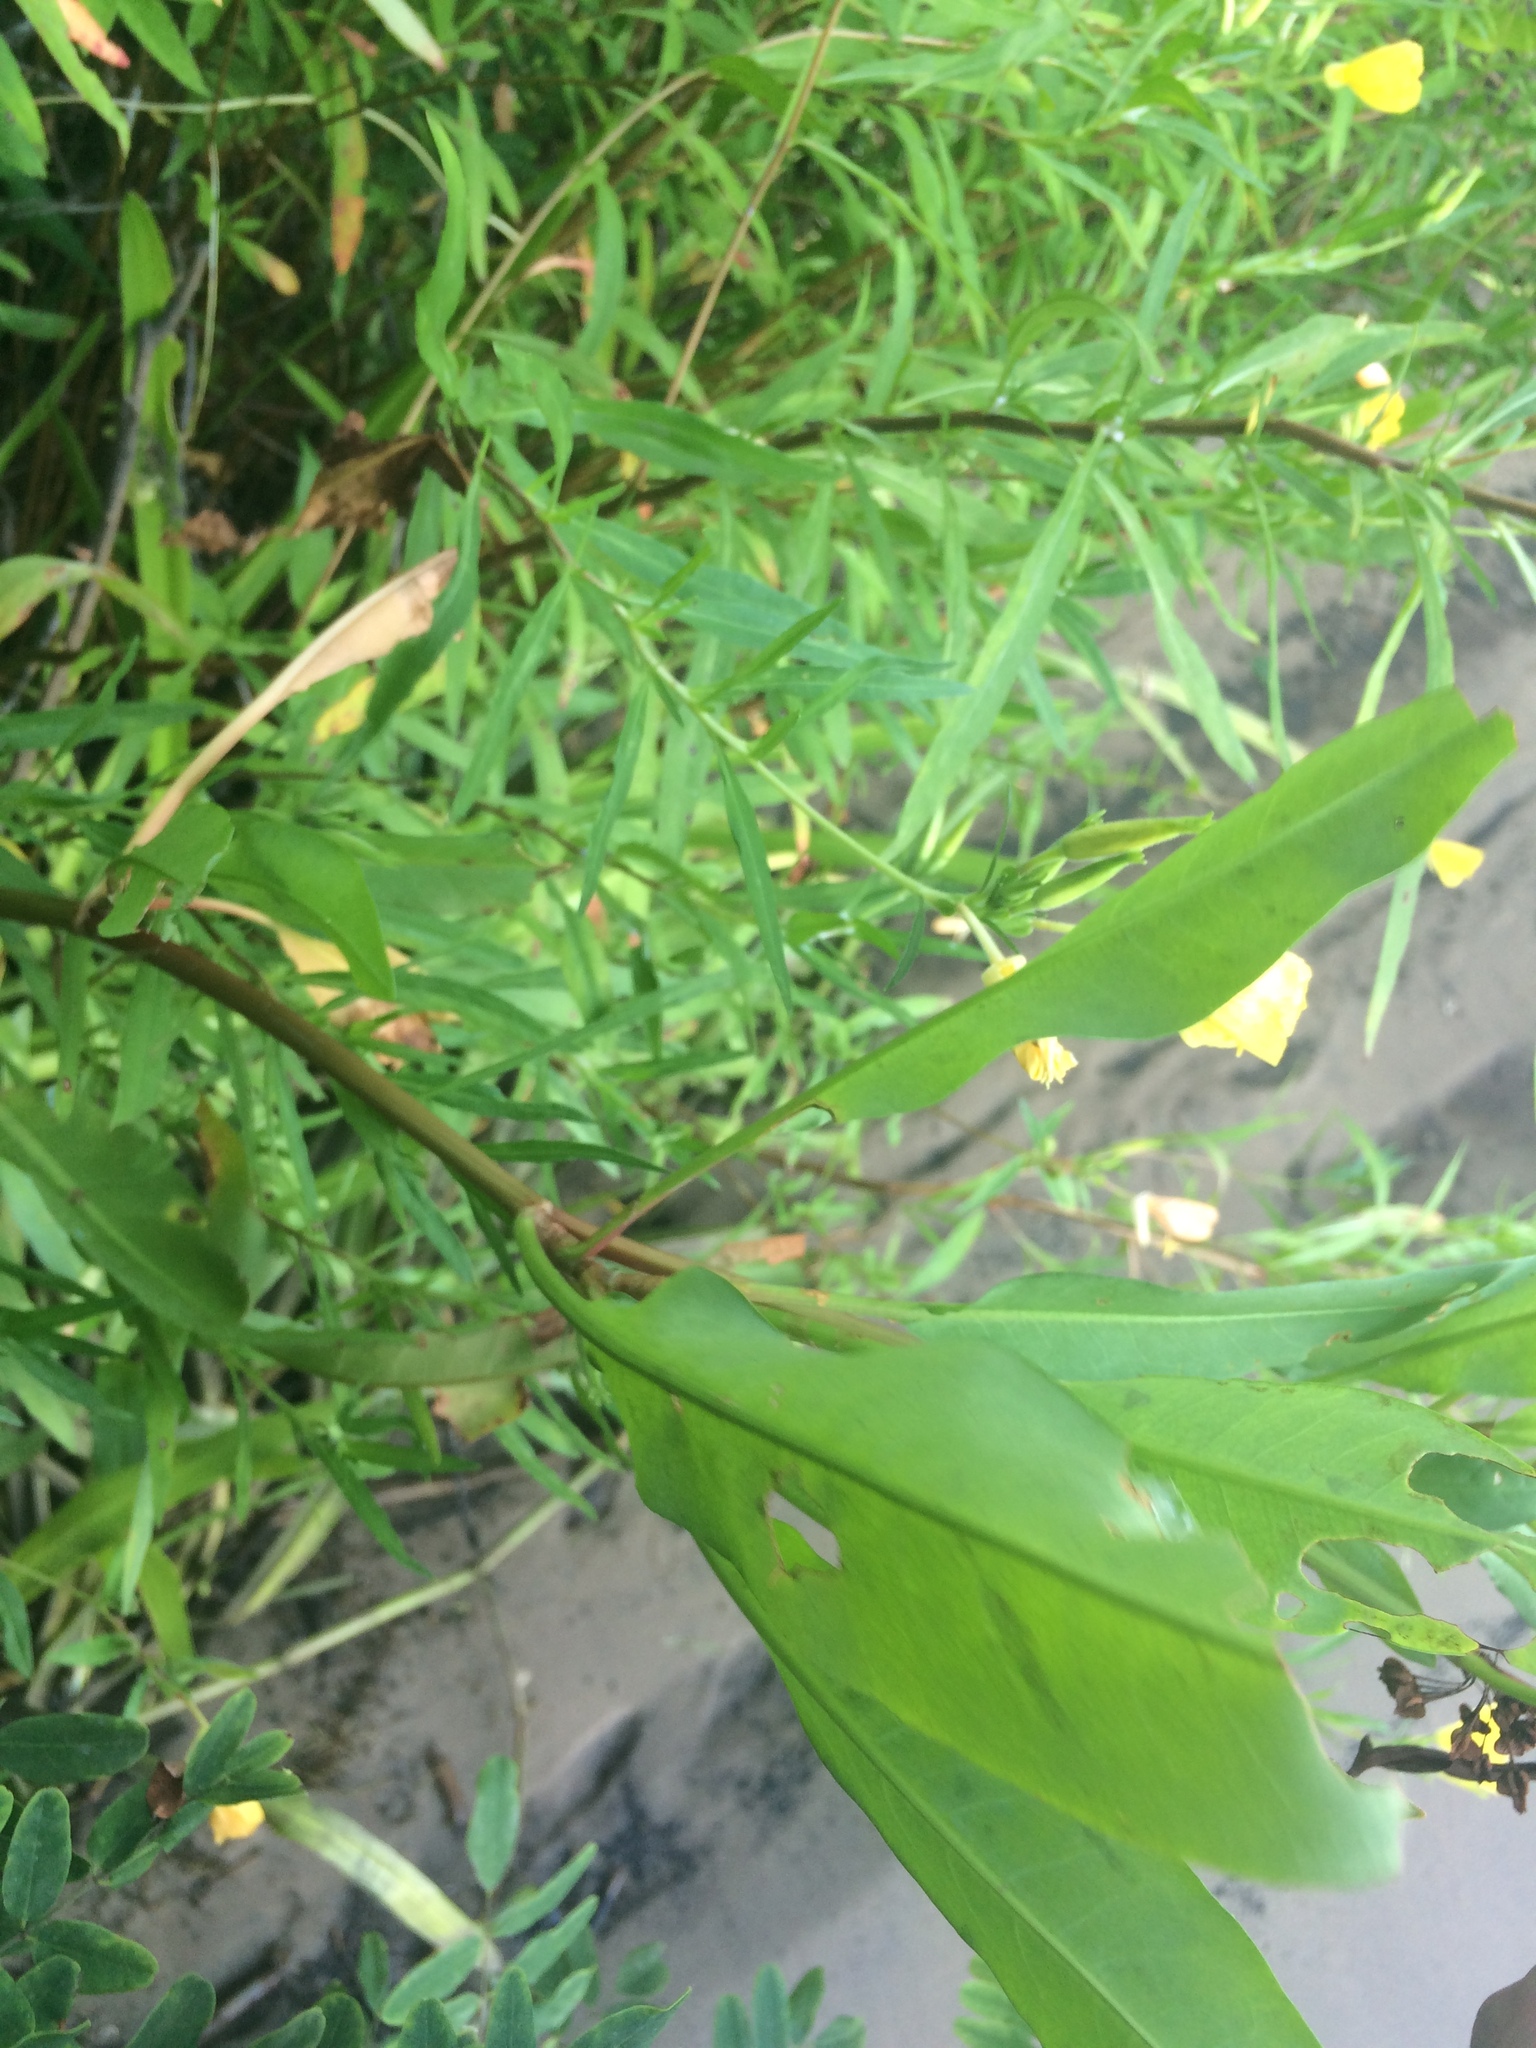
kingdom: Plantae
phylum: Tracheophyta
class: Magnoliopsida
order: Caryophyllales
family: Polygonaceae
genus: Rumex
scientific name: Rumex floridanus
